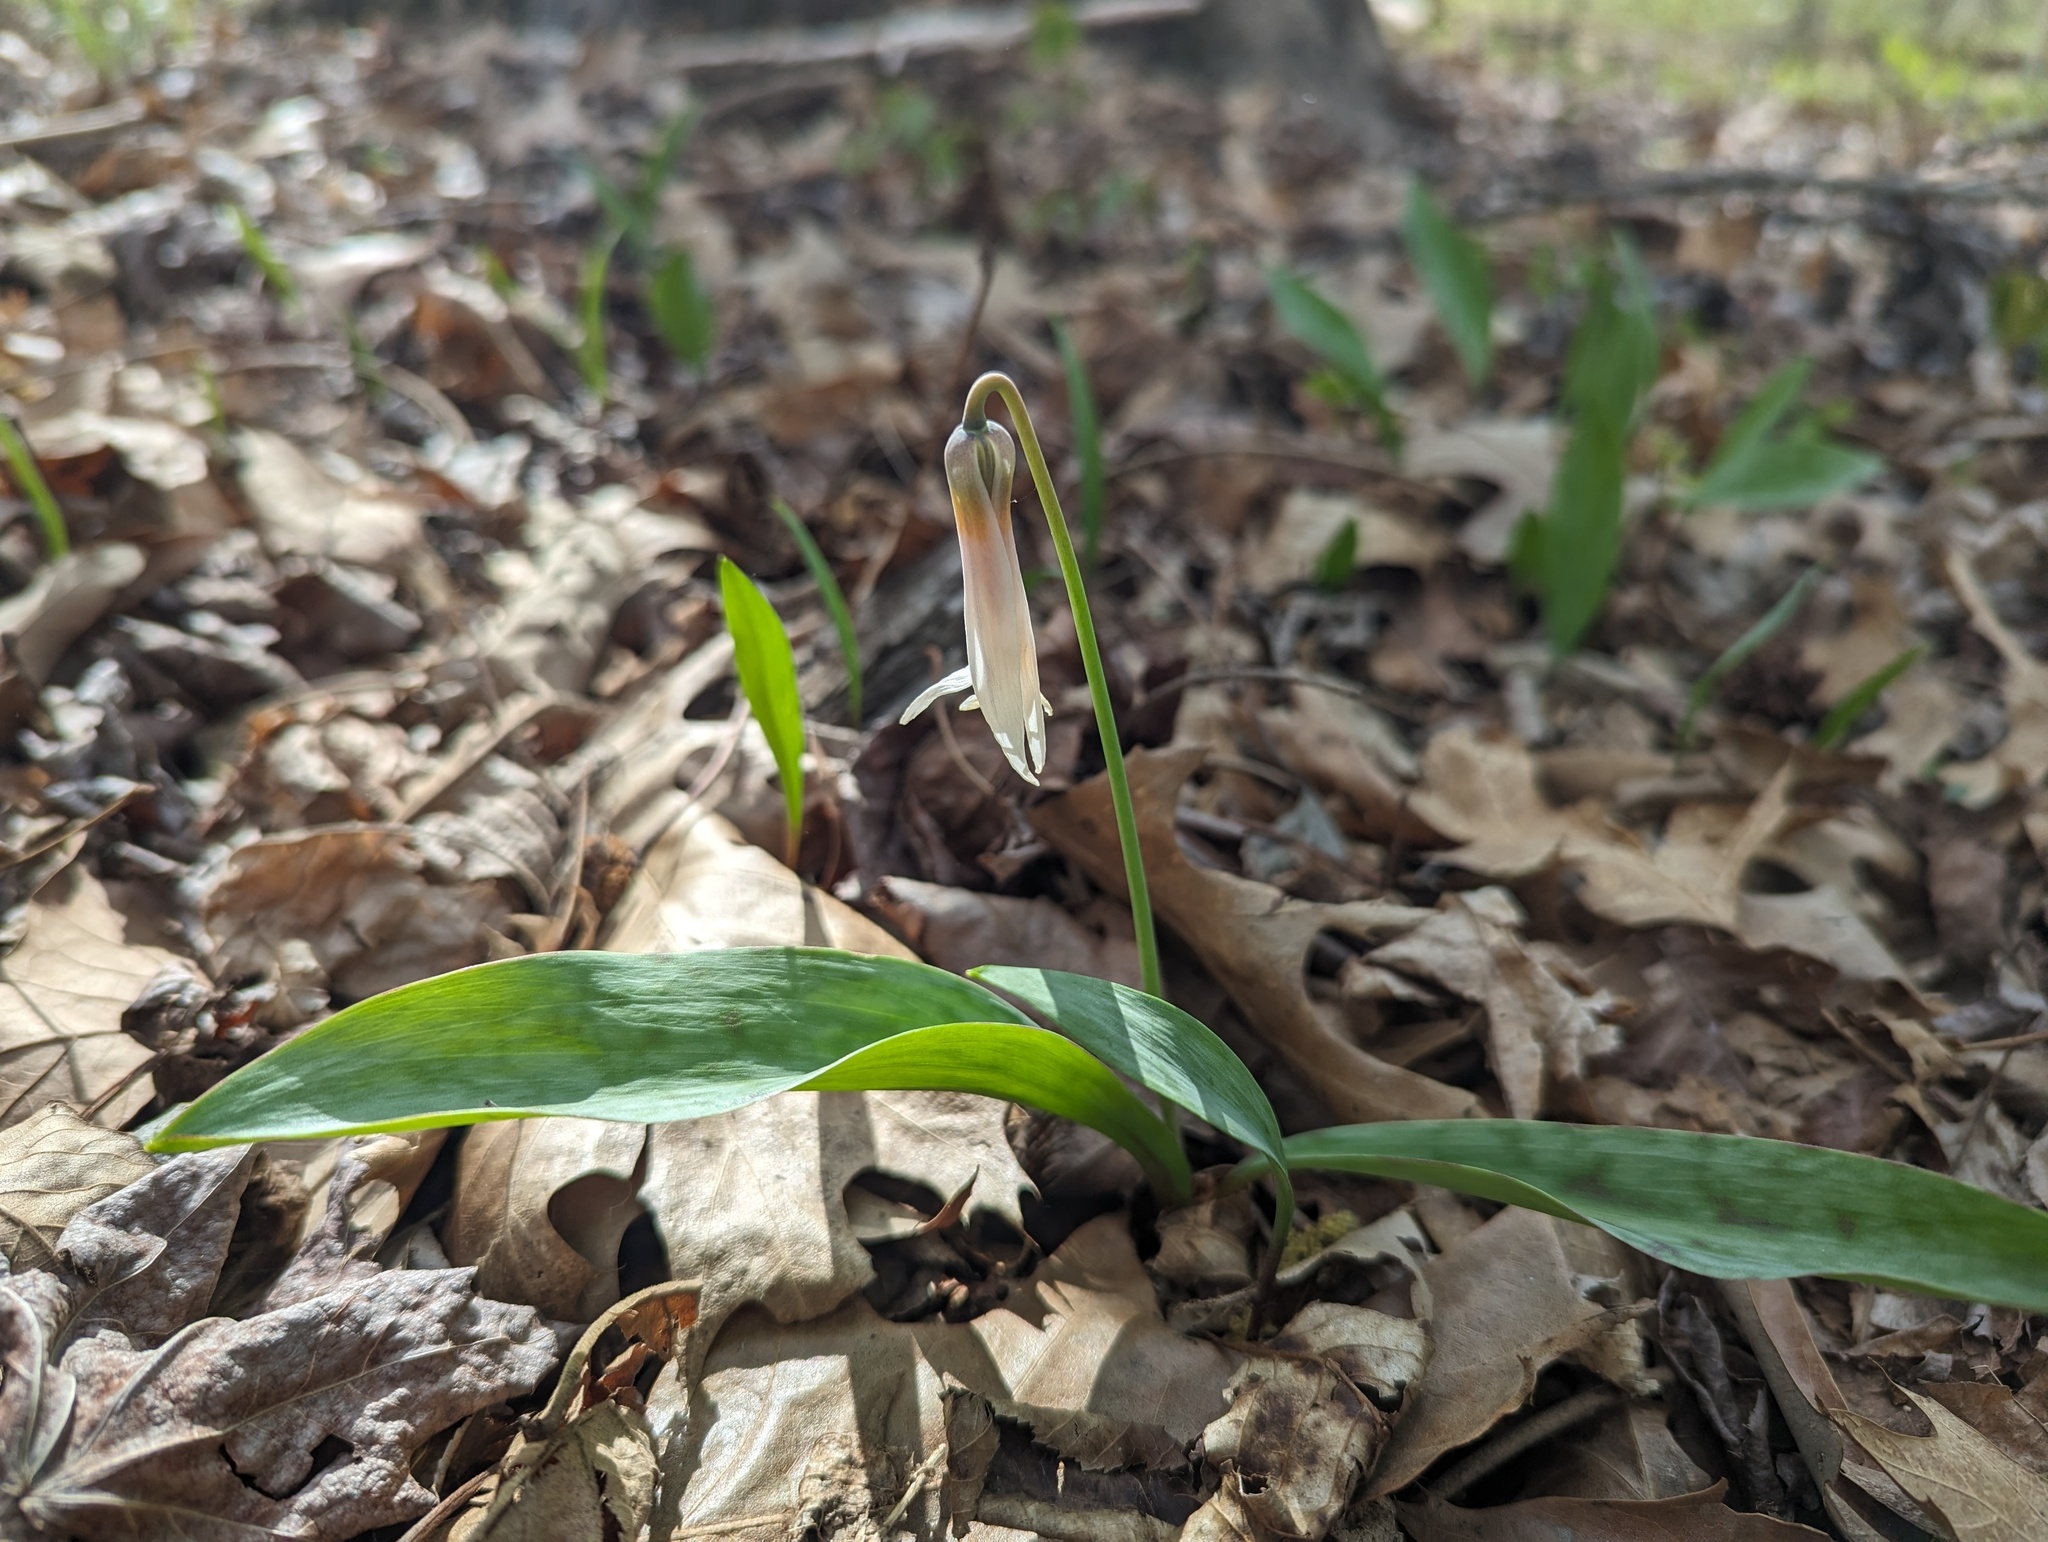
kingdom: Plantae
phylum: Tracheophyta
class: Liliopsida
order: Liliales
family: Liliaceae
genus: Erythronium
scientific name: Erythronium albidum
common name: White trout-lily
